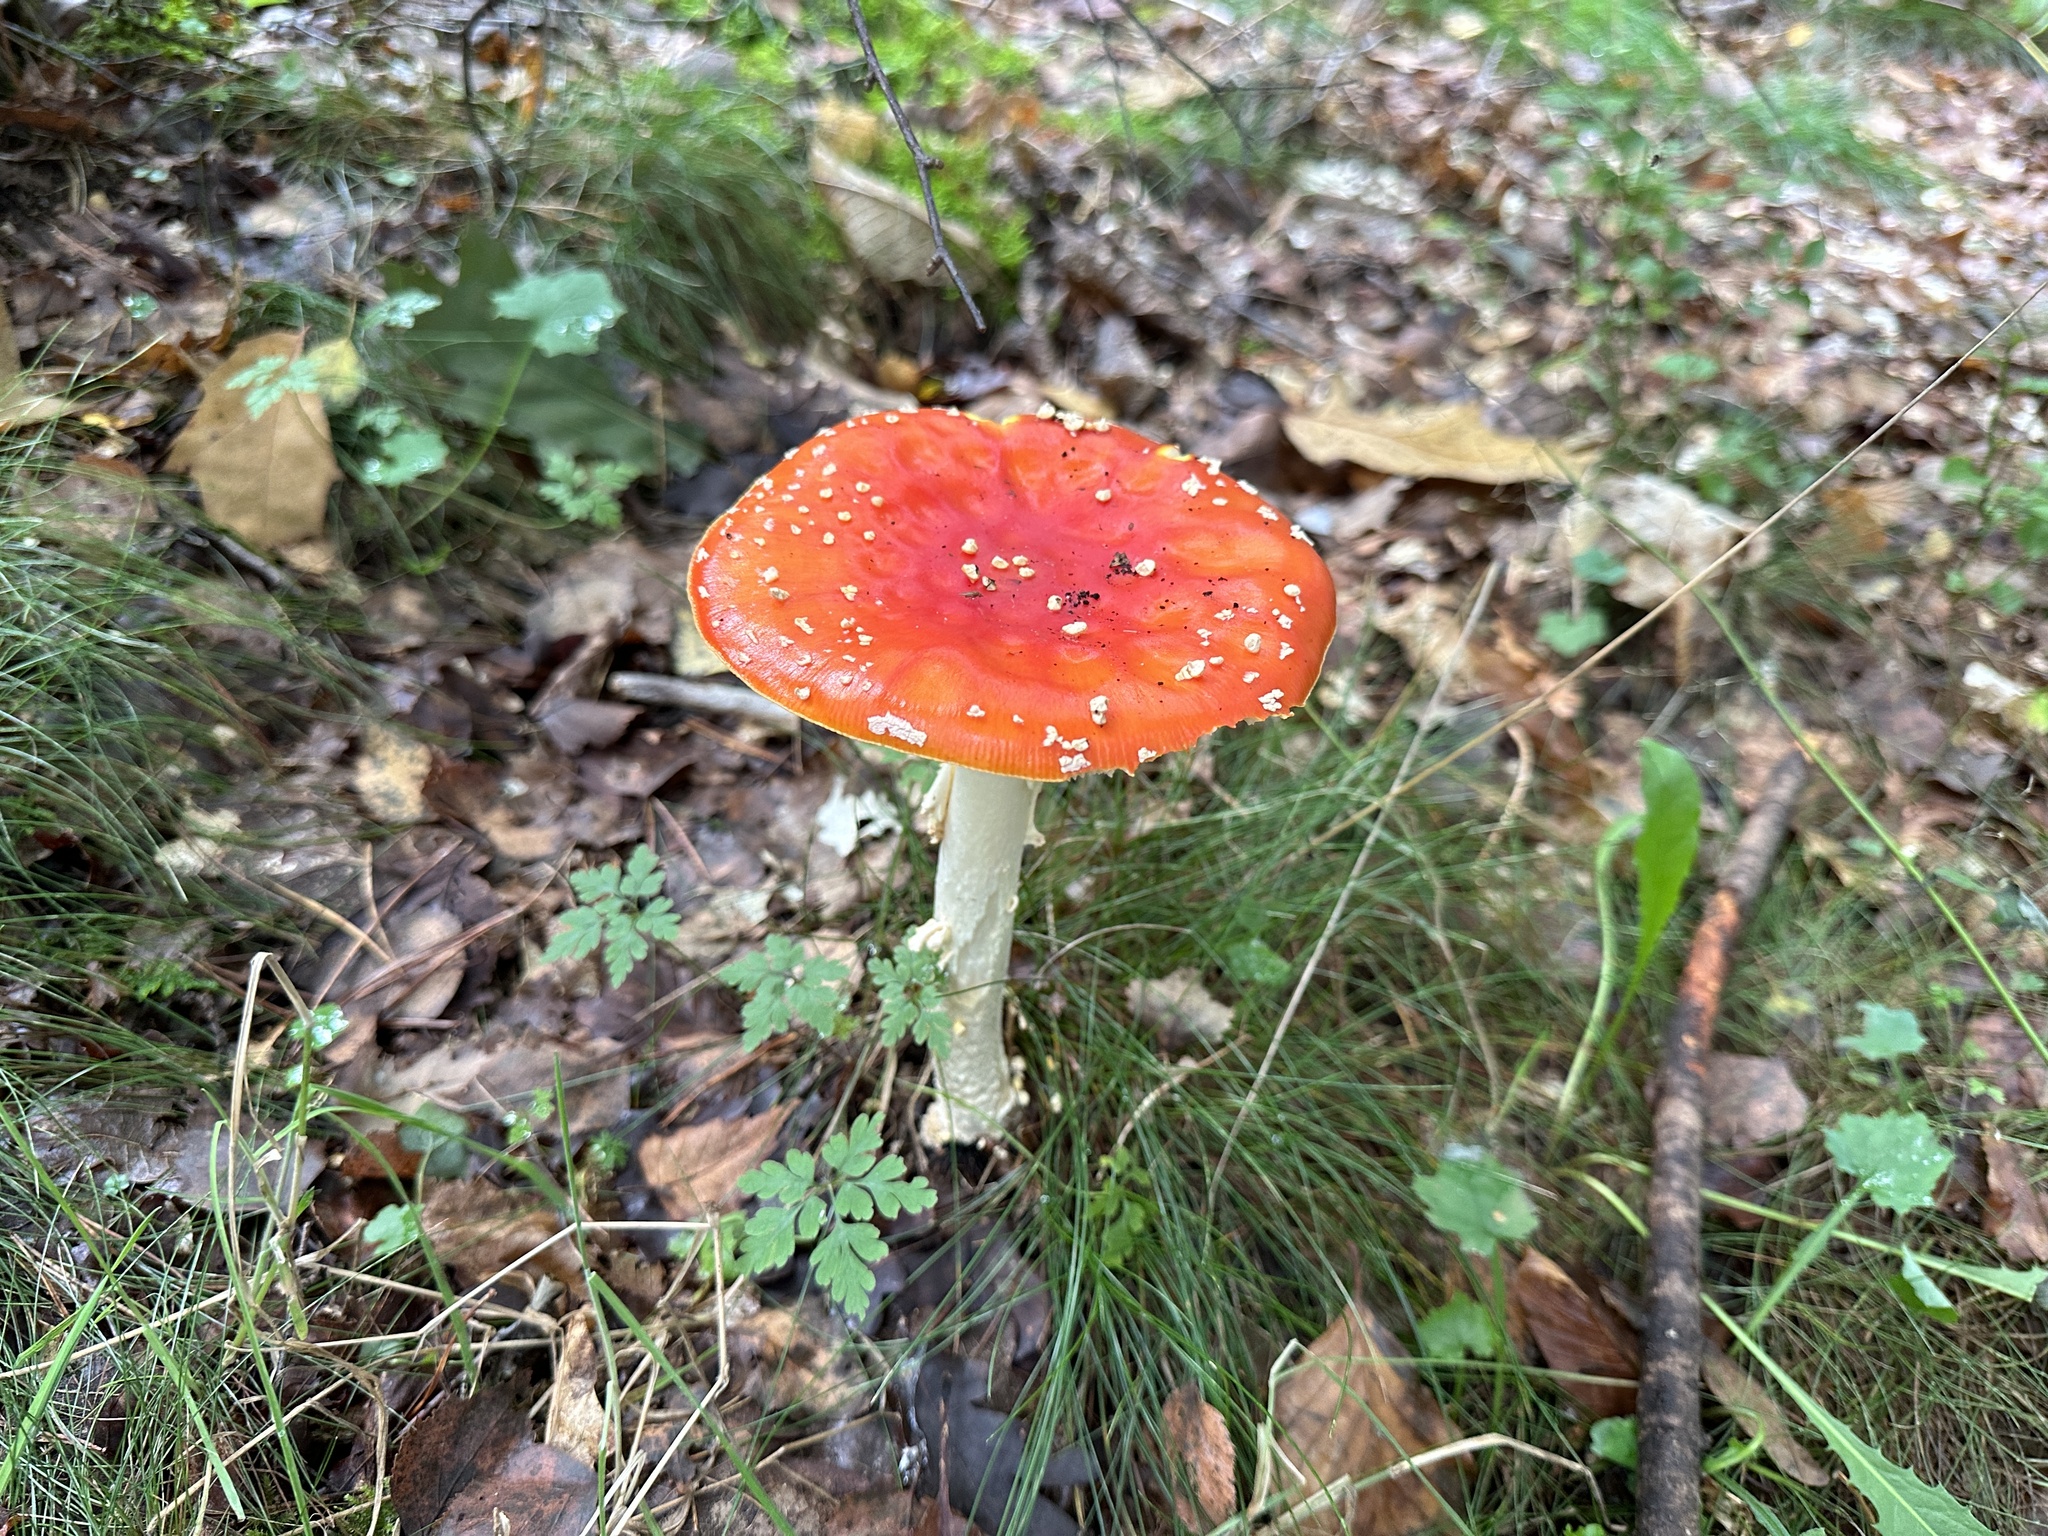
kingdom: Fungi
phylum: Basidiomycota
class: Agaricomycetes
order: Agaricales
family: Amanitaceae
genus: Amanita
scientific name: Amanita muscaria
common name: Fly agaric
